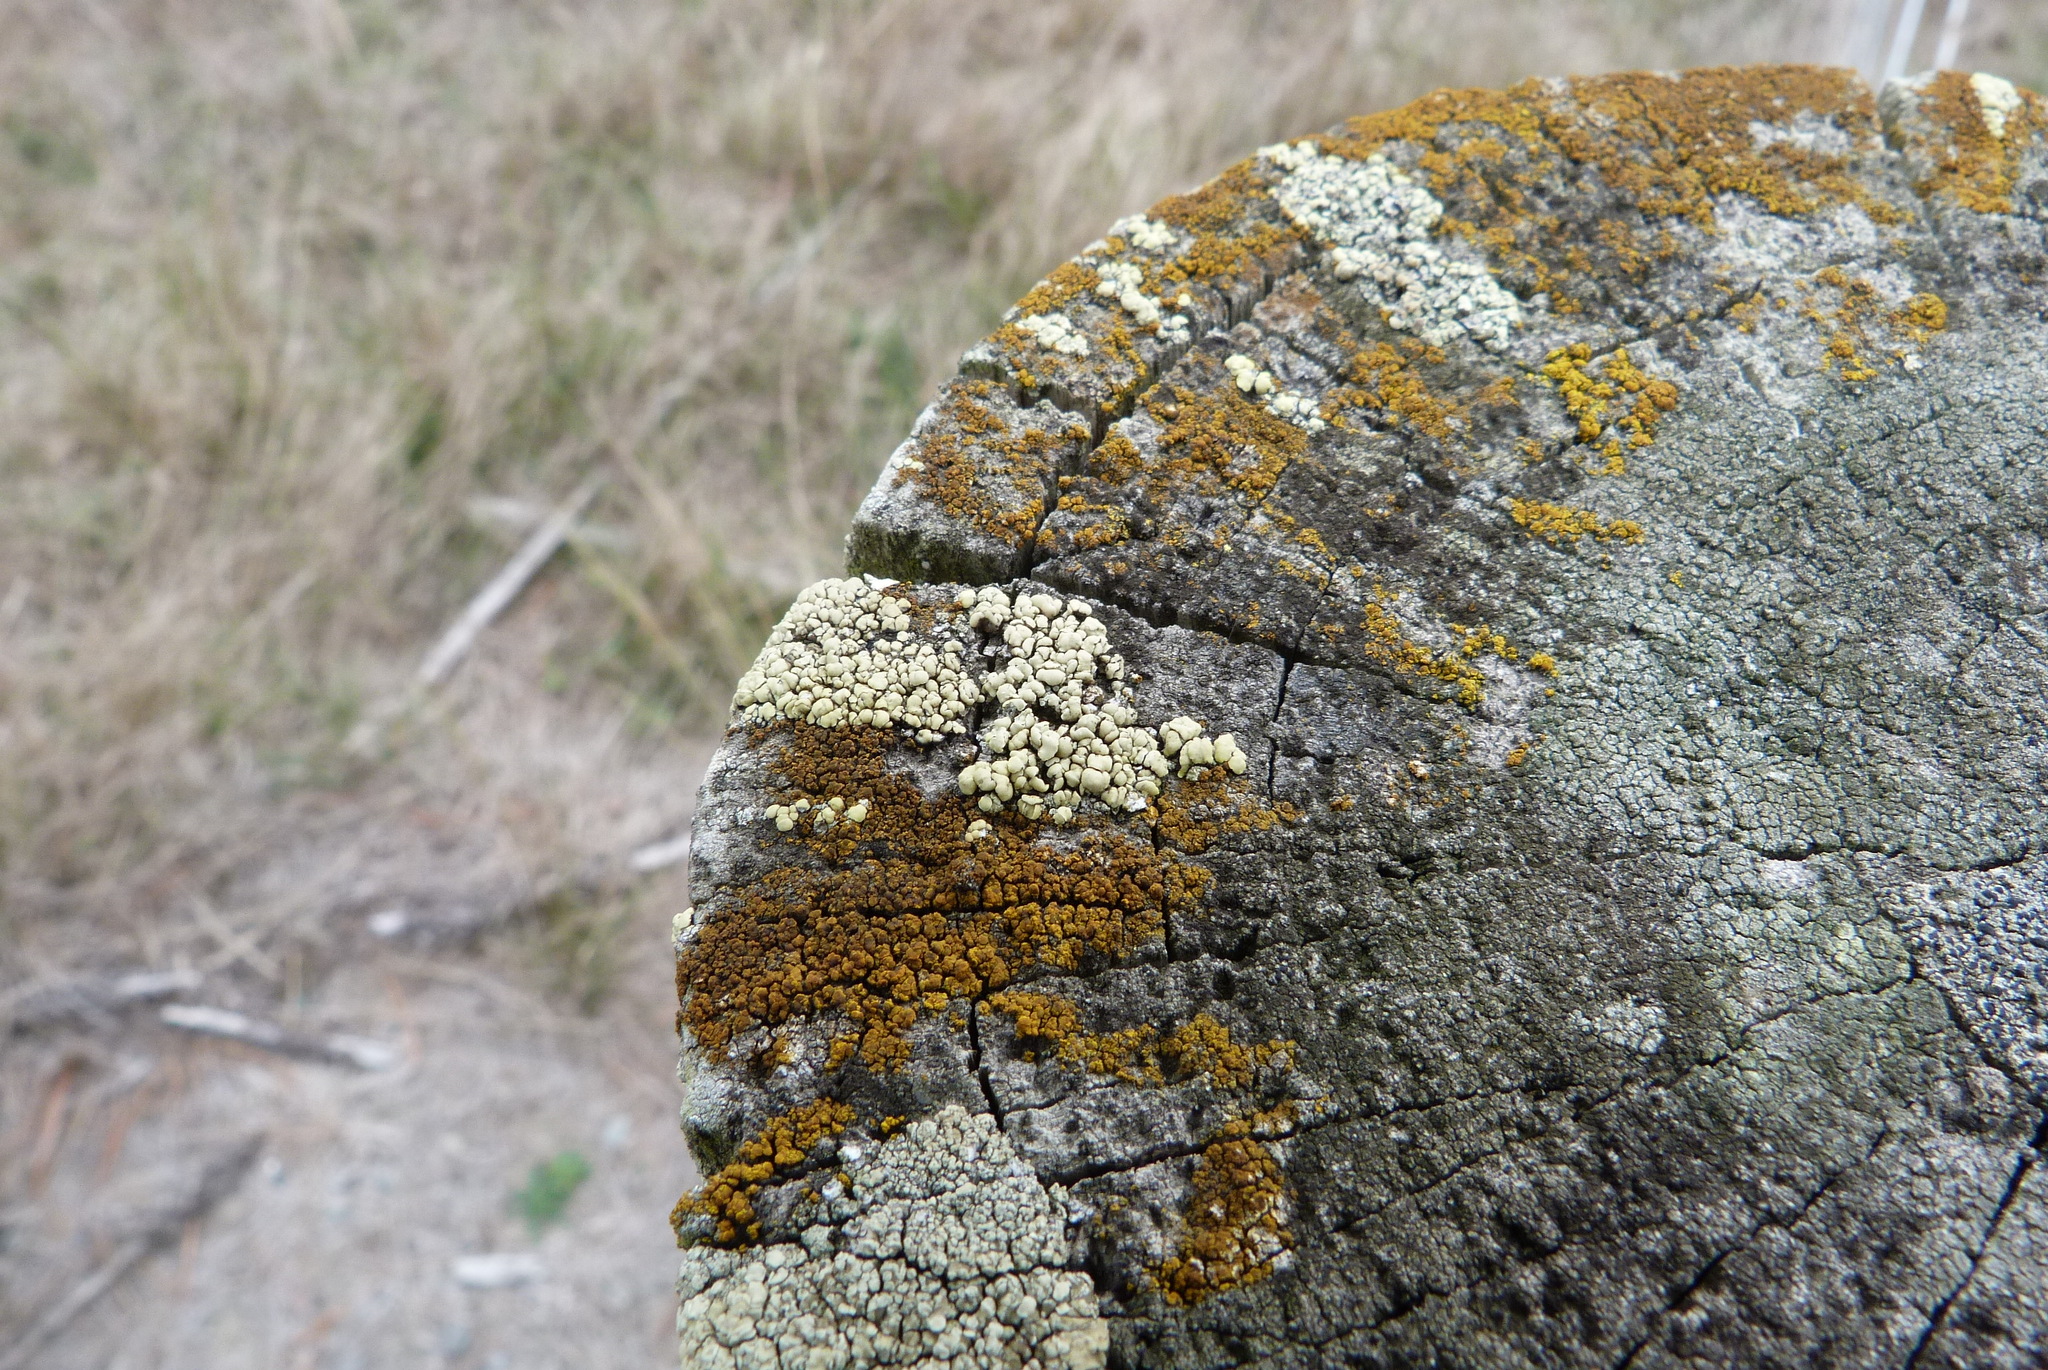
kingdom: Fungi
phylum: Ascomycota
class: Lecanoromycetes
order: Lecanorales
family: Lecanoraceae
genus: Lecanora
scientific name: Lecanora polytropa
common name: Granite-speck rim lichen
